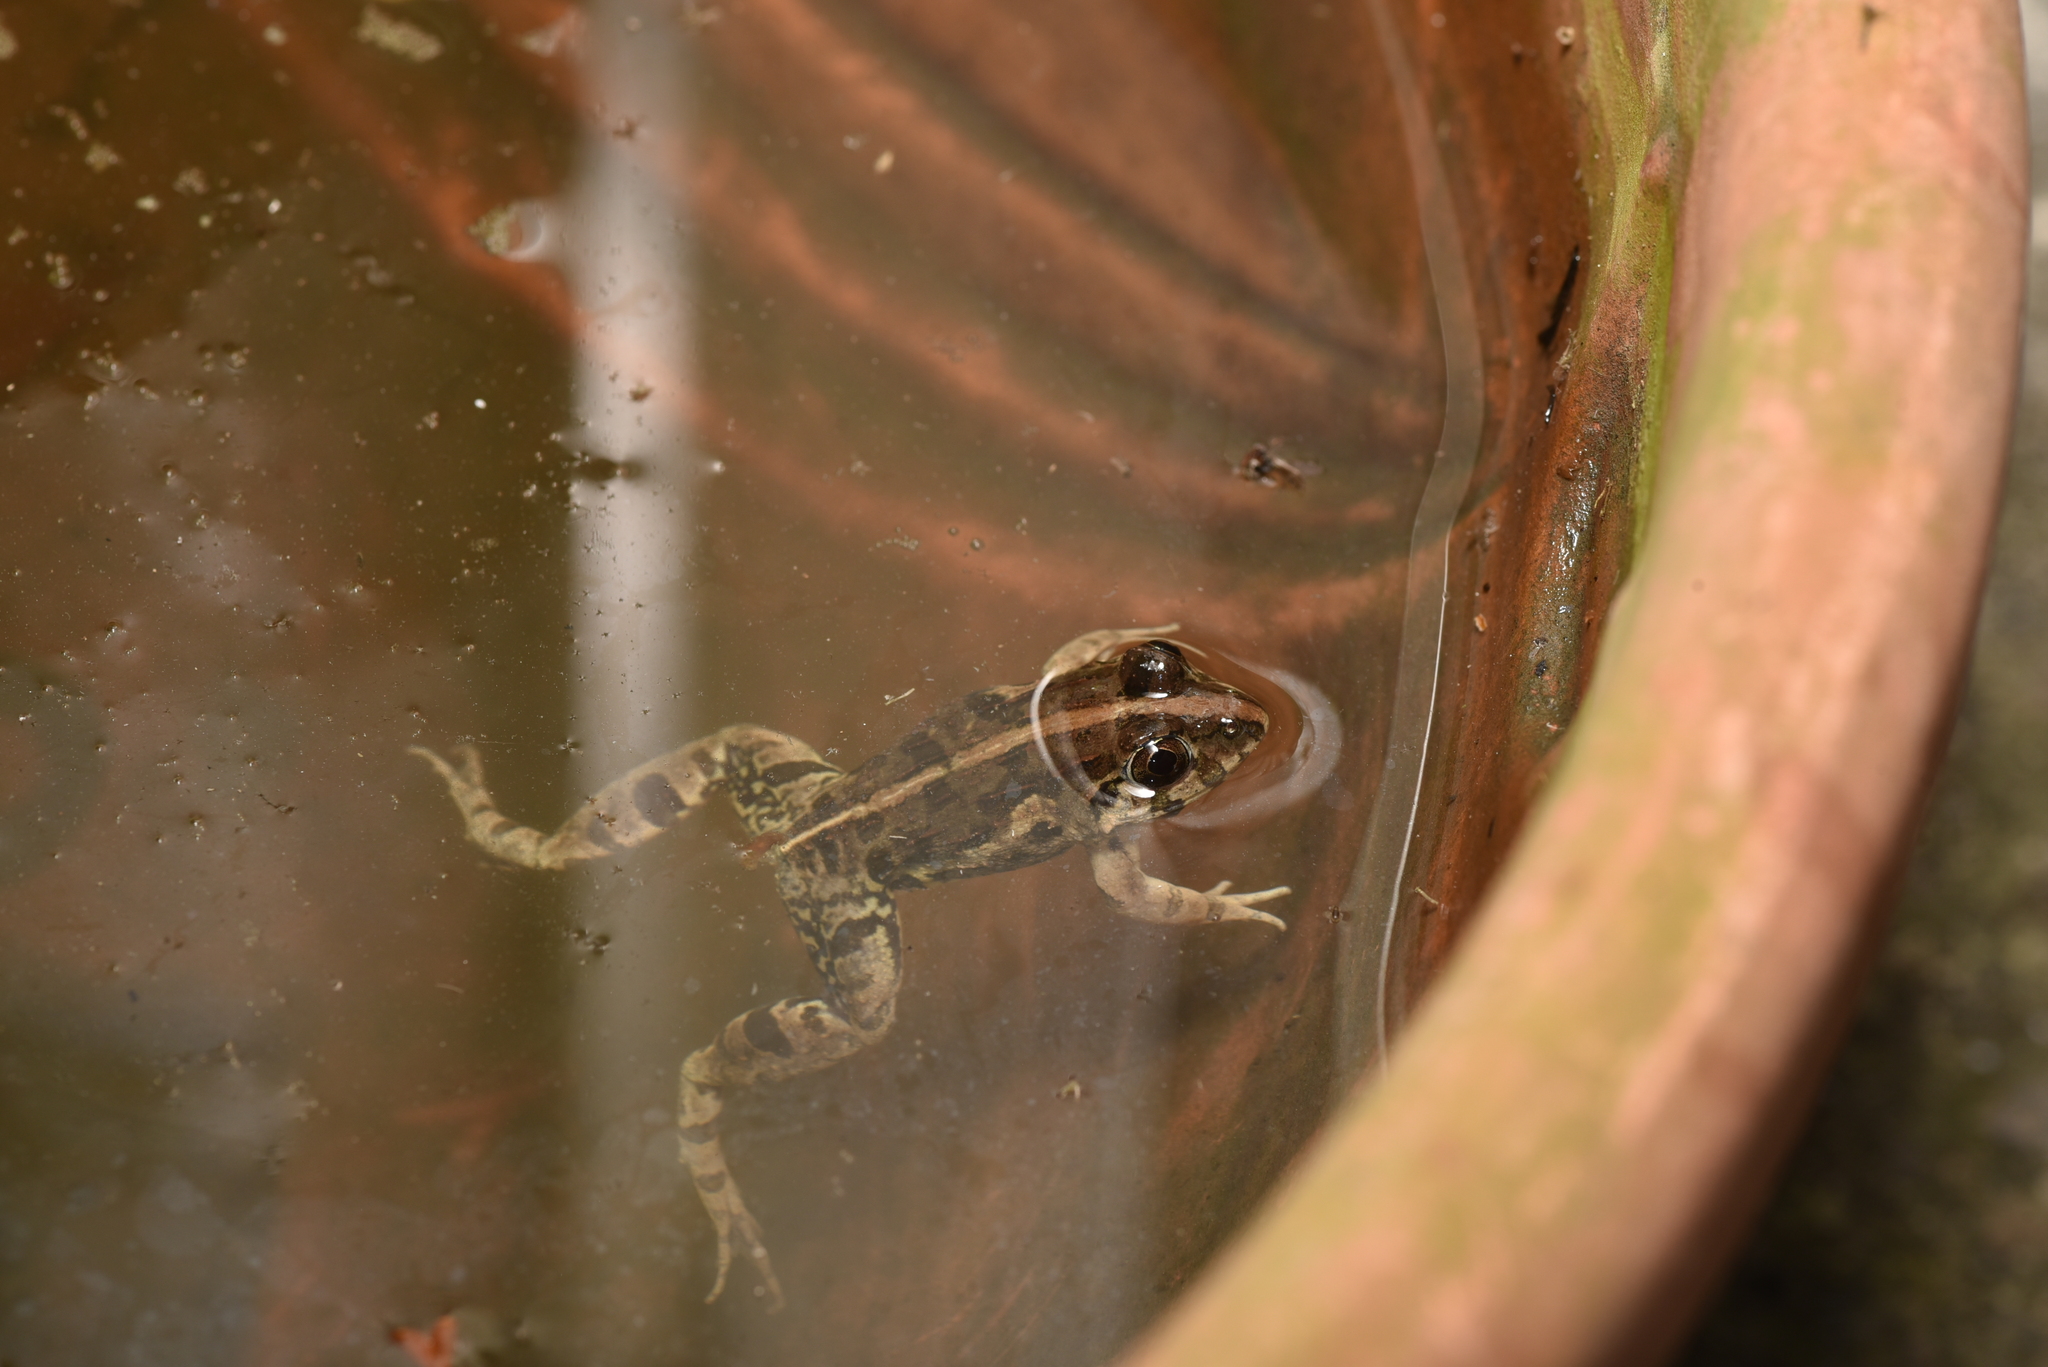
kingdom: Animalia
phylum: Chordata
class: Amphibia
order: Anura
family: Dicroglossidae
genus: Fejervarya
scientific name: Fejervarya limnocharis
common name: Asian grass frog/common pond frog/field frog/grass frog/indian rice frog
